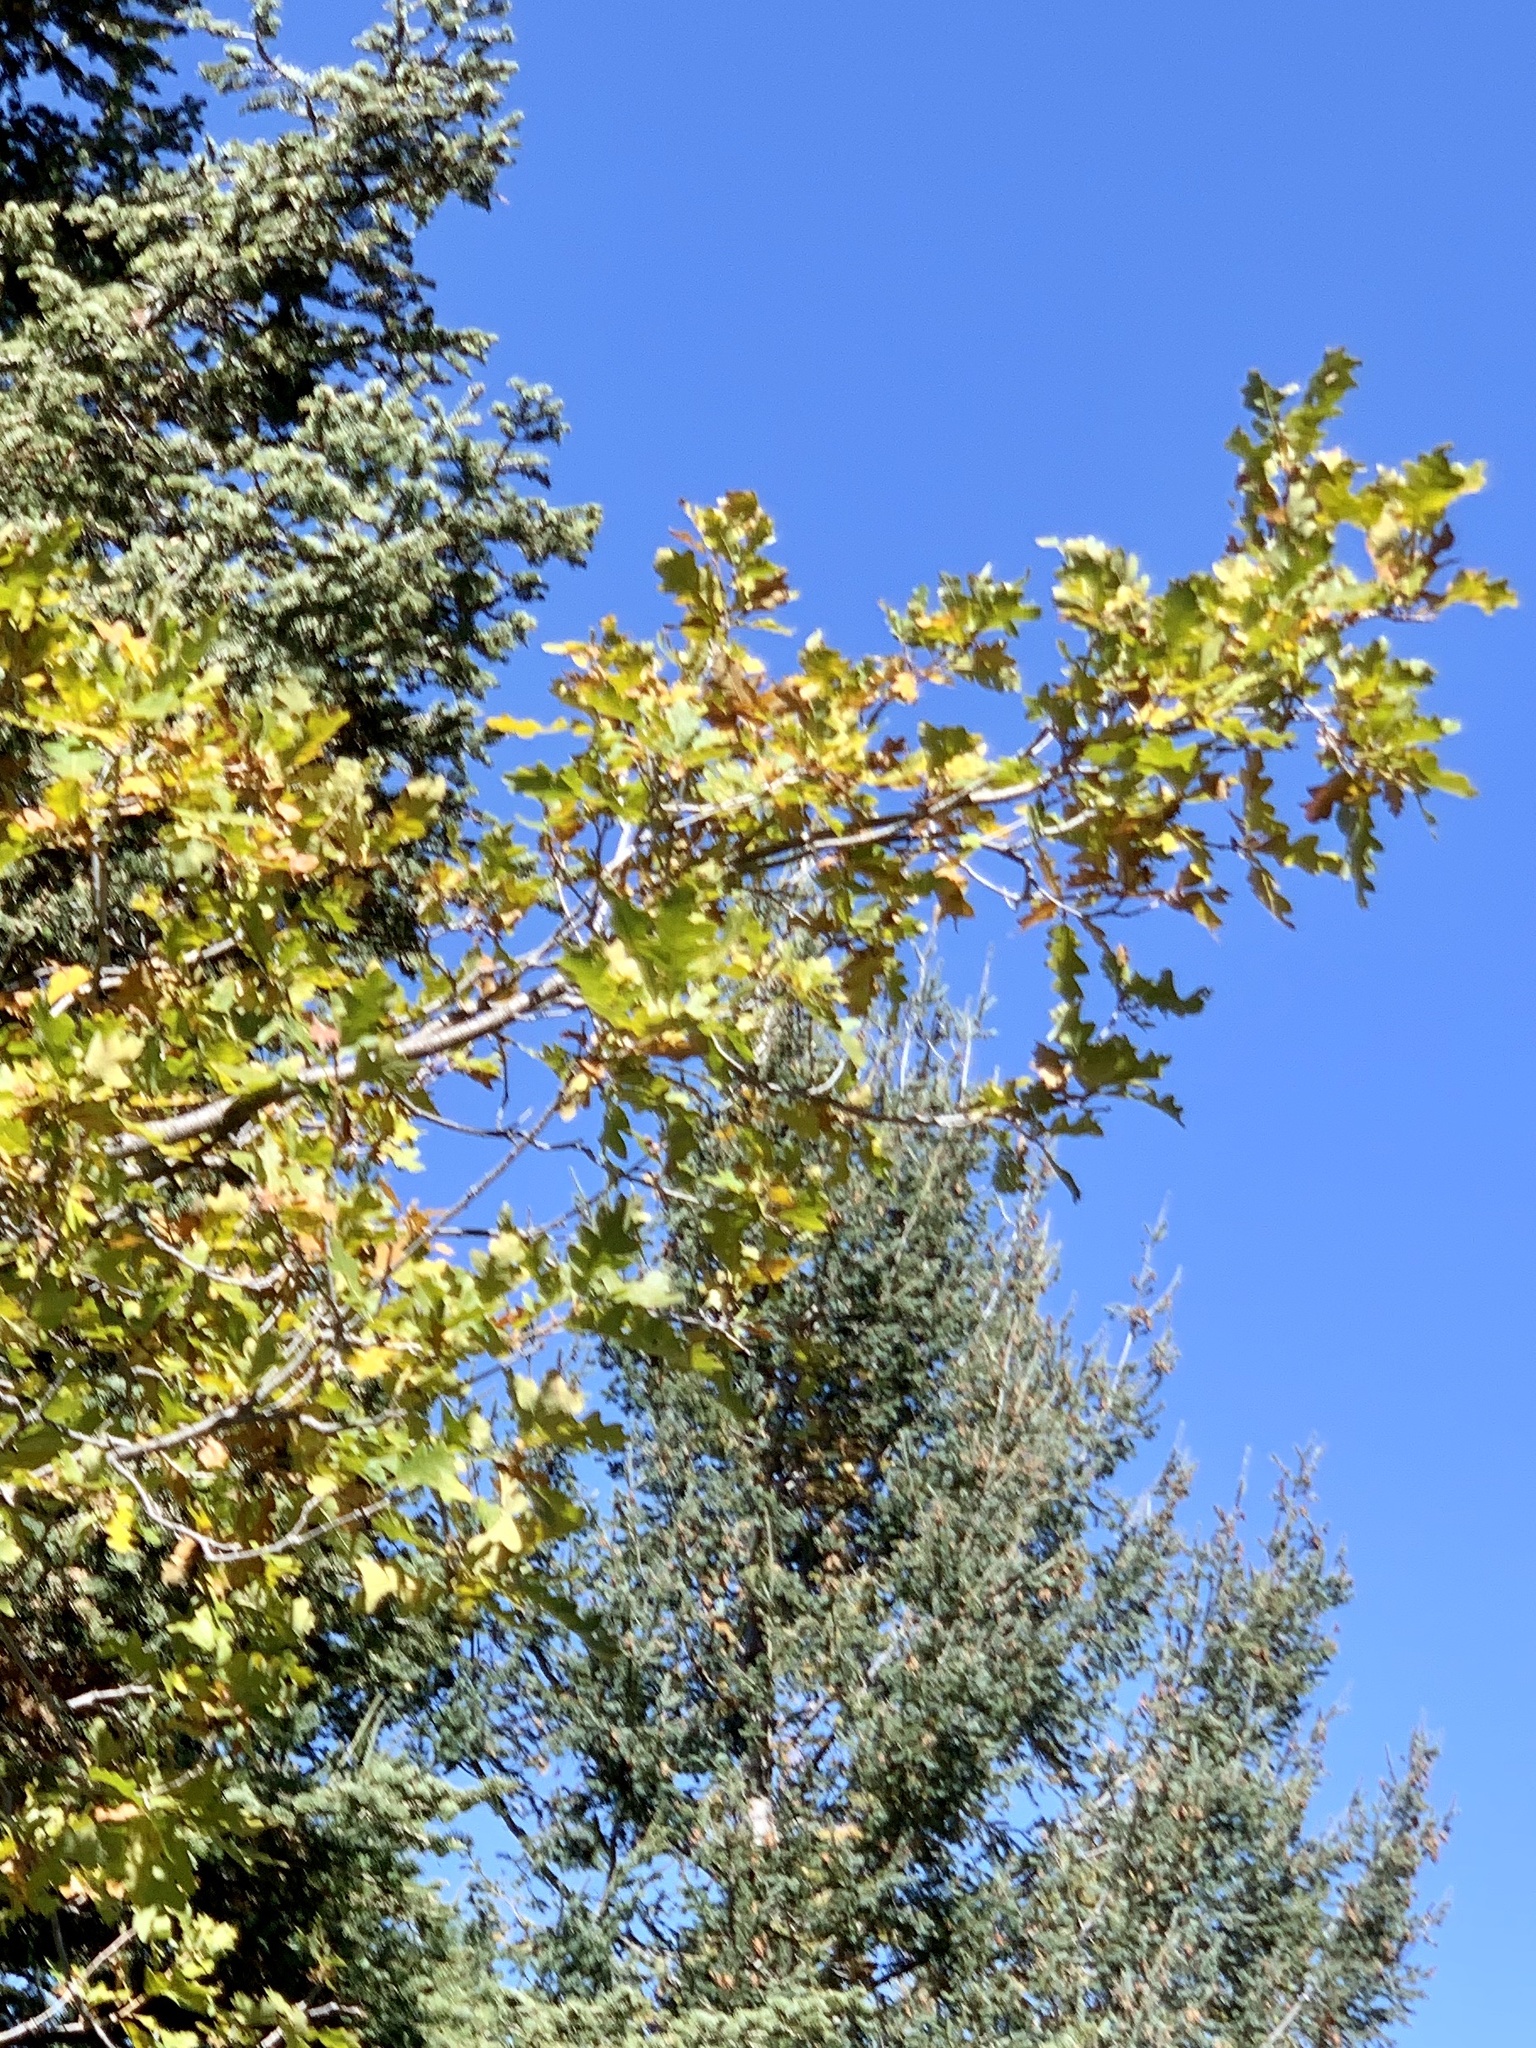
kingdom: Plantae
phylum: Tracheophyta
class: Magnoliopsida
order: Fagales
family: Fagaceae
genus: Quercus
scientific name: Quercus gambelii
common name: Gambel oak
